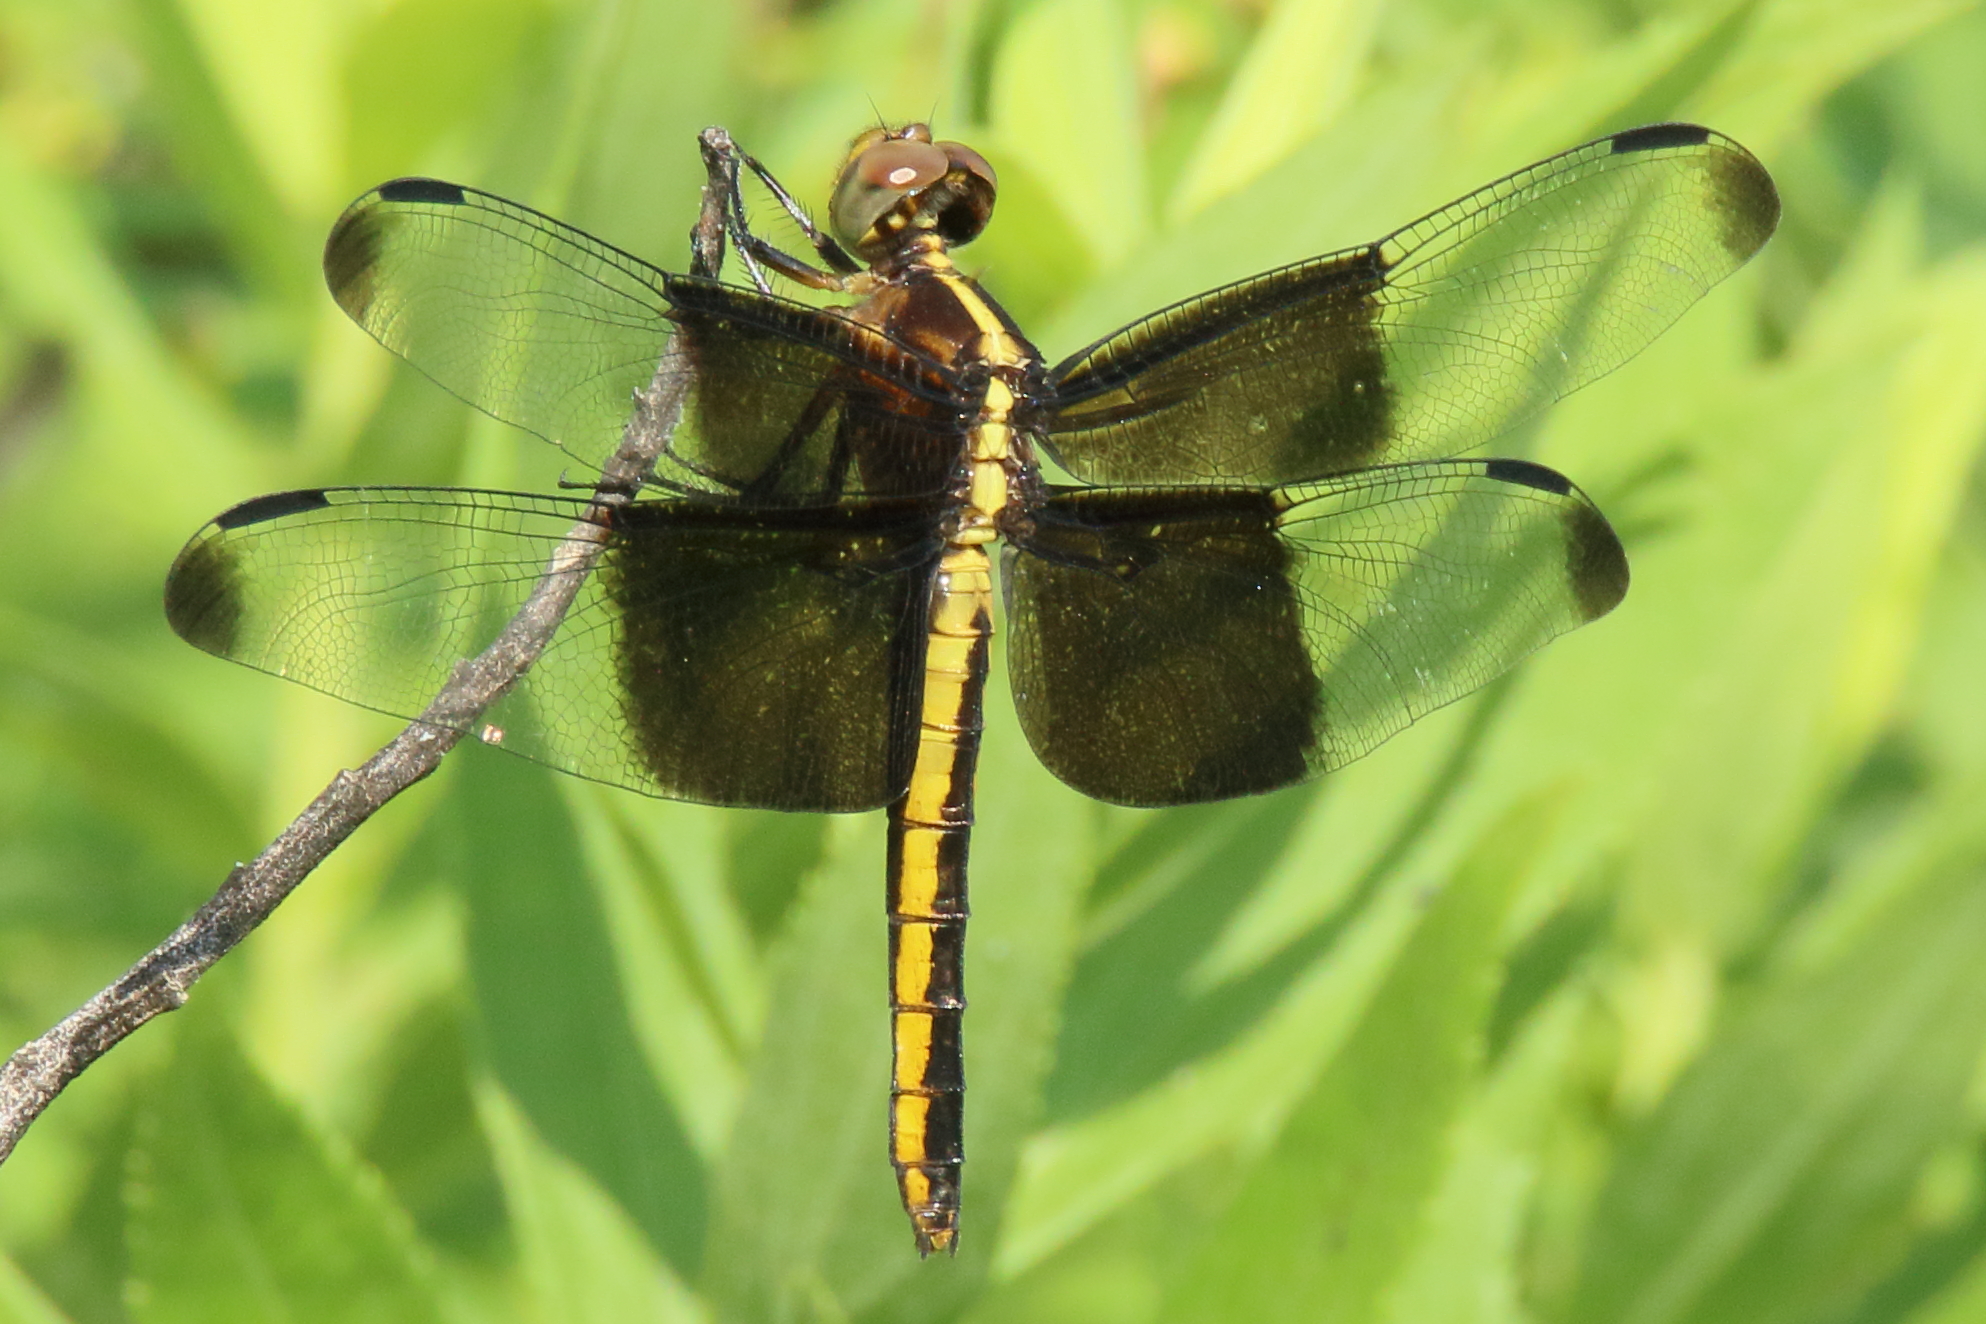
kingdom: Animalia
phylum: Arthropoda
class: Insecta
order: Odonata
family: Libellulidae
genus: Libellula
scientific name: Libellula luctuosa
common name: Widow skimmer
